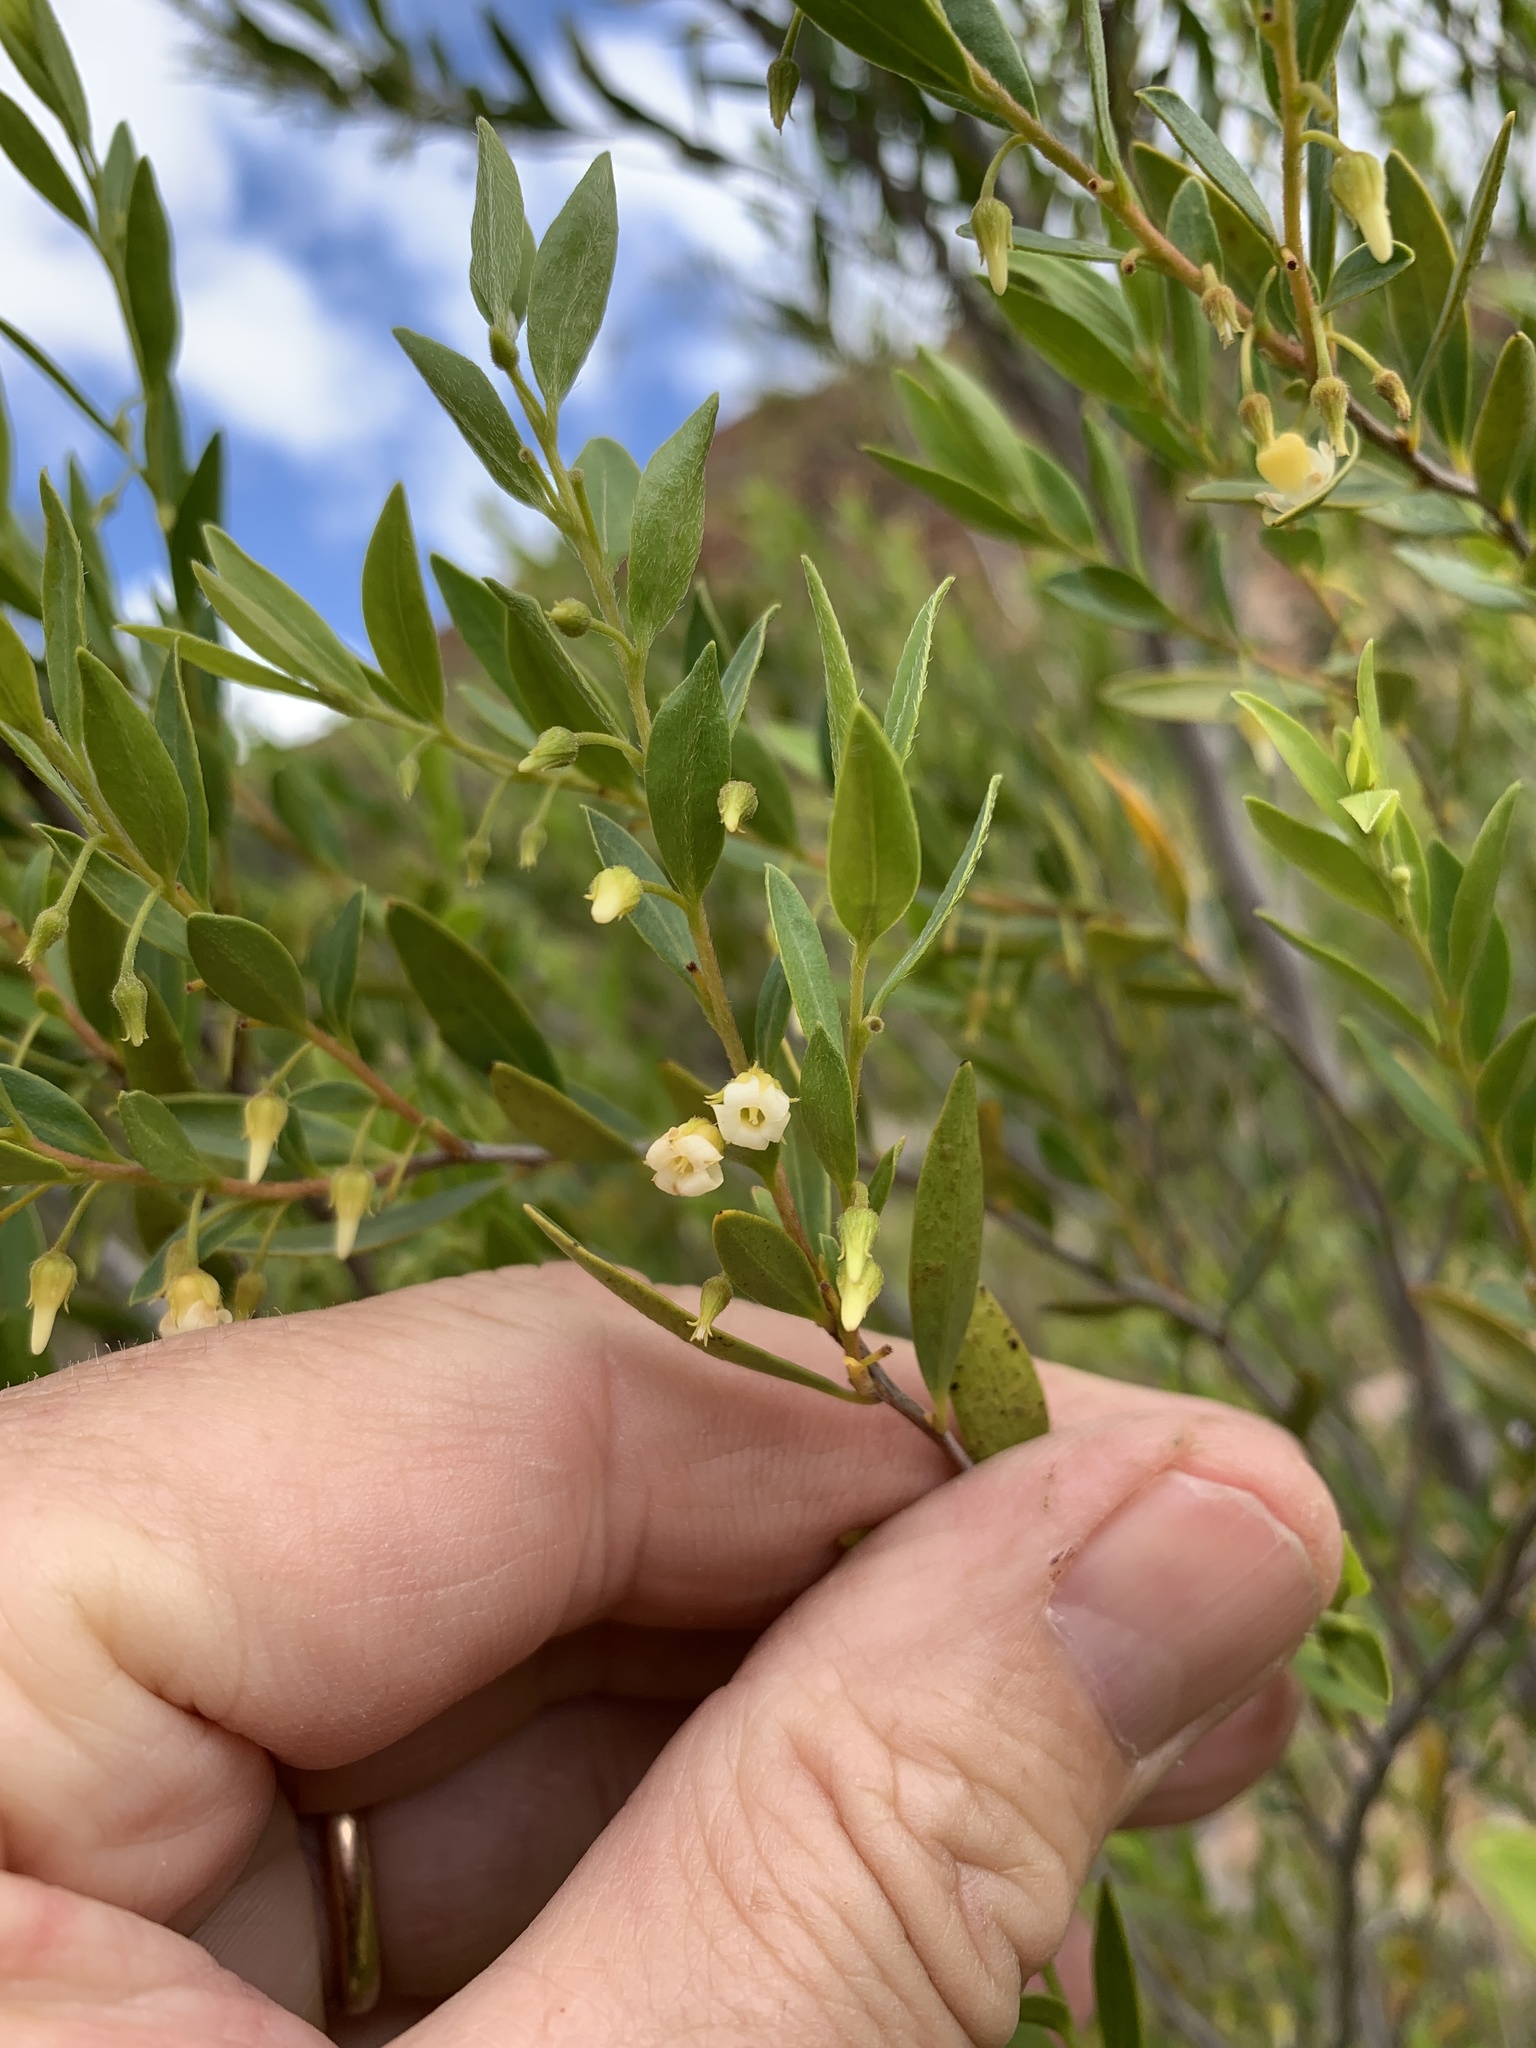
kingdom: Plantae
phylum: Tracheophyta
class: Magnoliopsida
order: Ericales
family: Ebenaceae
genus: Diospyros
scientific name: Diospyros glabra
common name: Fynbos star apple
